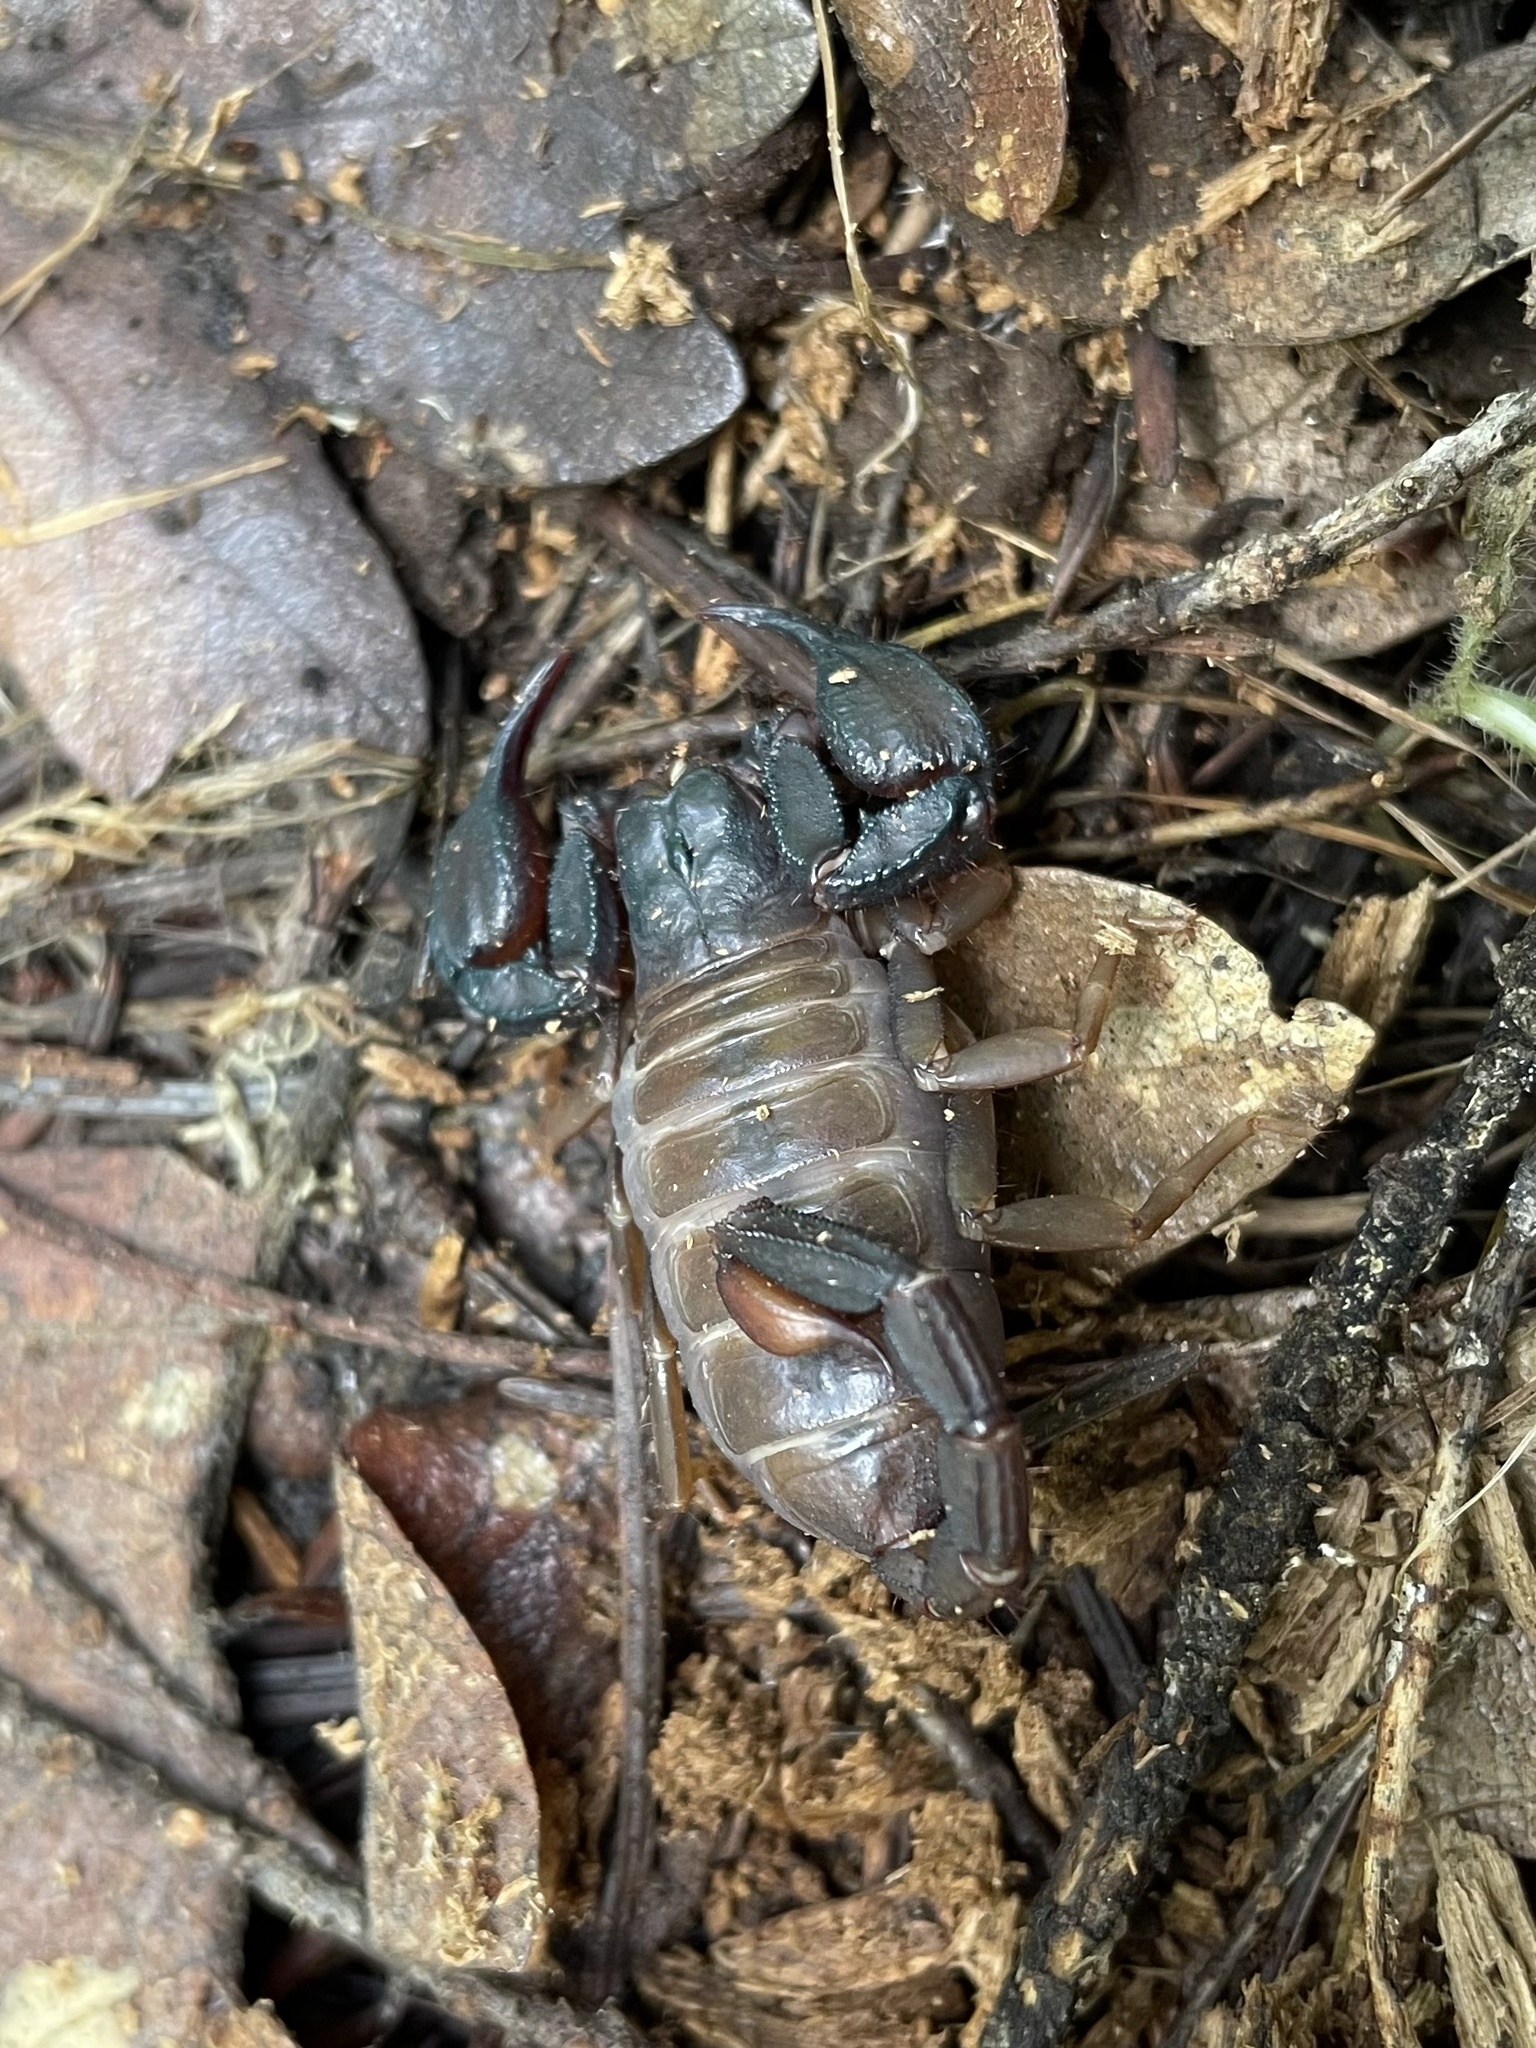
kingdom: Animalia
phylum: Arthropoda
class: Arachnida
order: Scorpiones
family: Chactidae
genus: Uroctonus
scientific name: Uroctonus mordax
